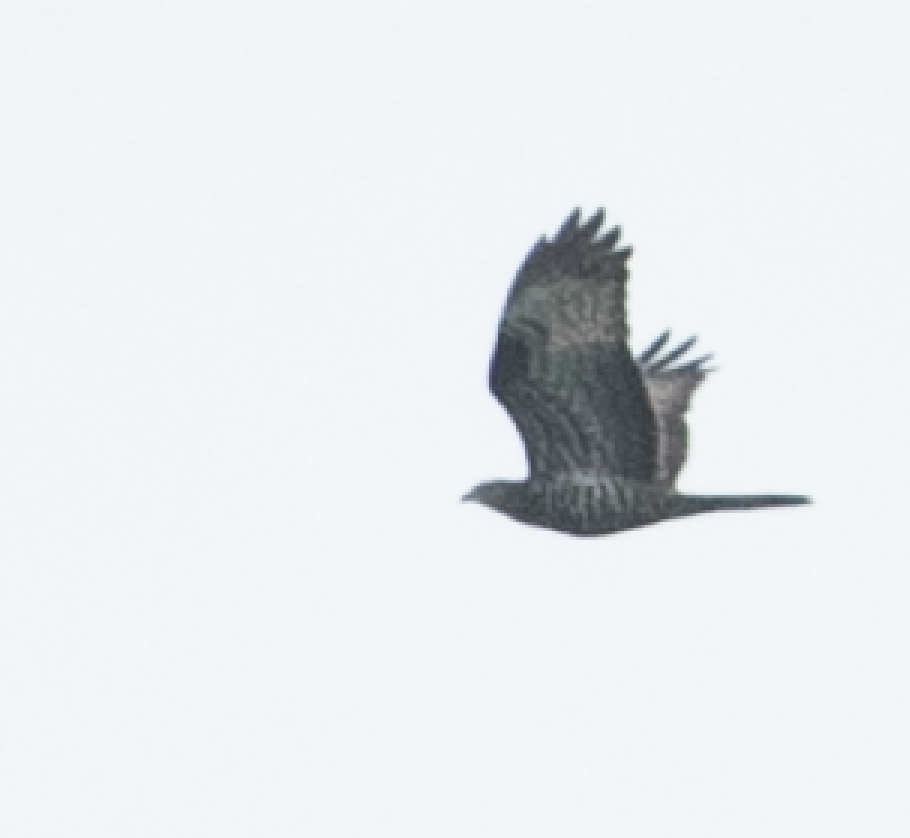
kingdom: Animalia
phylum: Chordata
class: Aves
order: Accipitriformes
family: Accipitridae
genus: Pernis
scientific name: Pernis apivorus
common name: European honey buzzard
